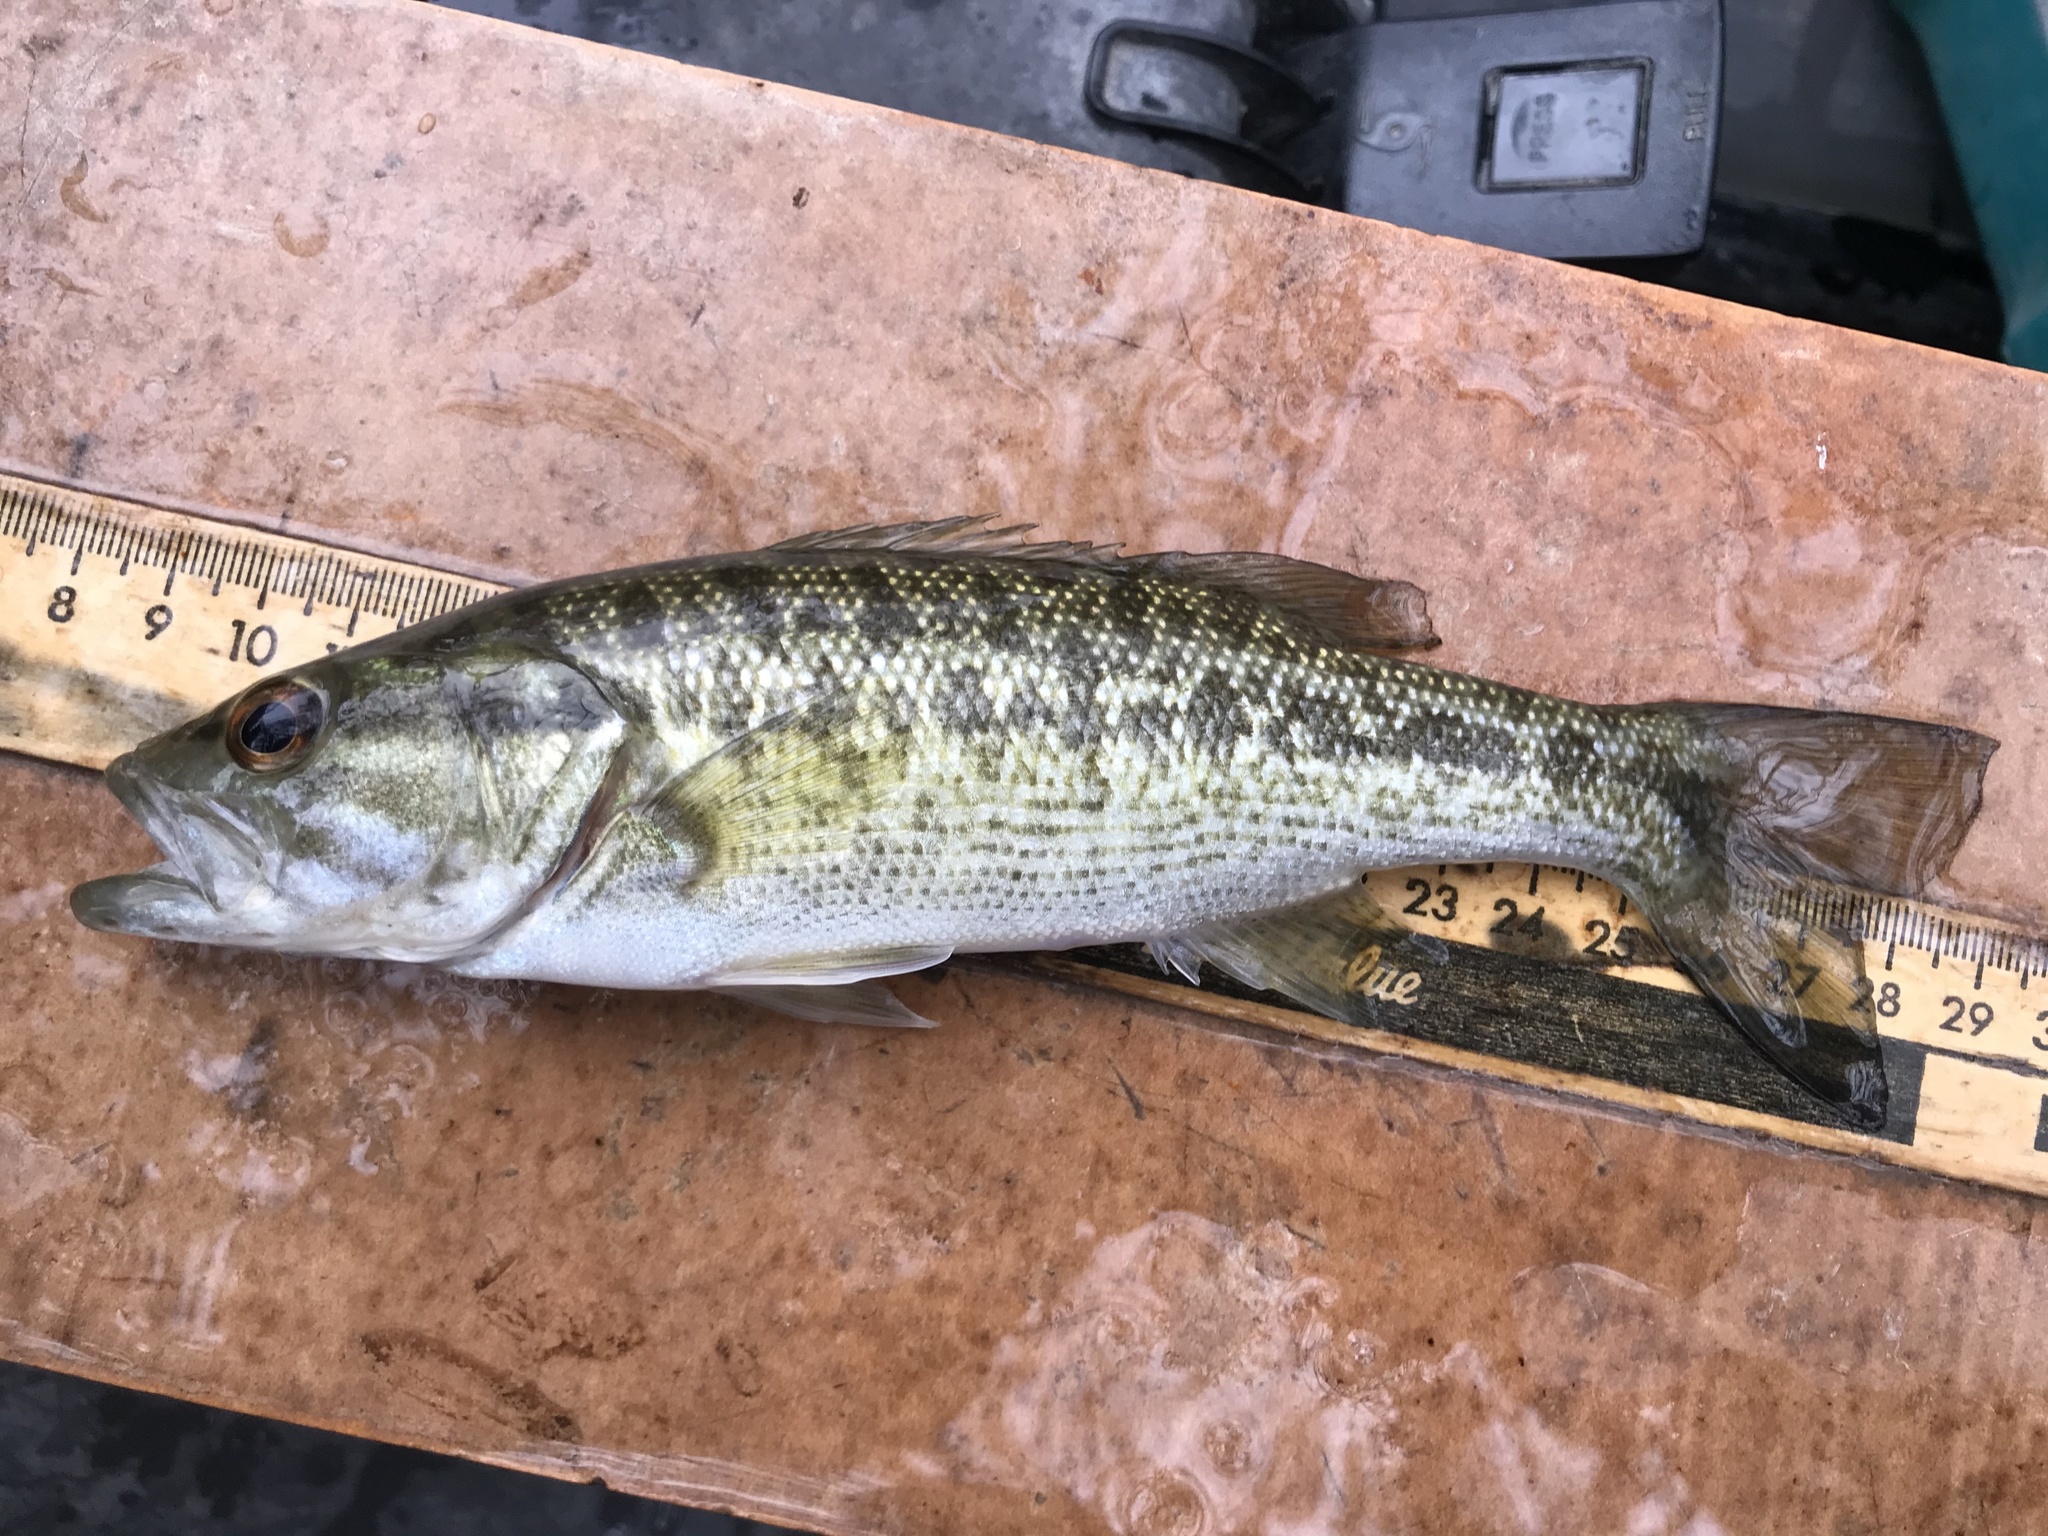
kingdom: Animalia
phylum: Chordata
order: Perciformes
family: Centrarchidae
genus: Micropterus
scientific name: Micropterus treculii
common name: Guadalupe bass
